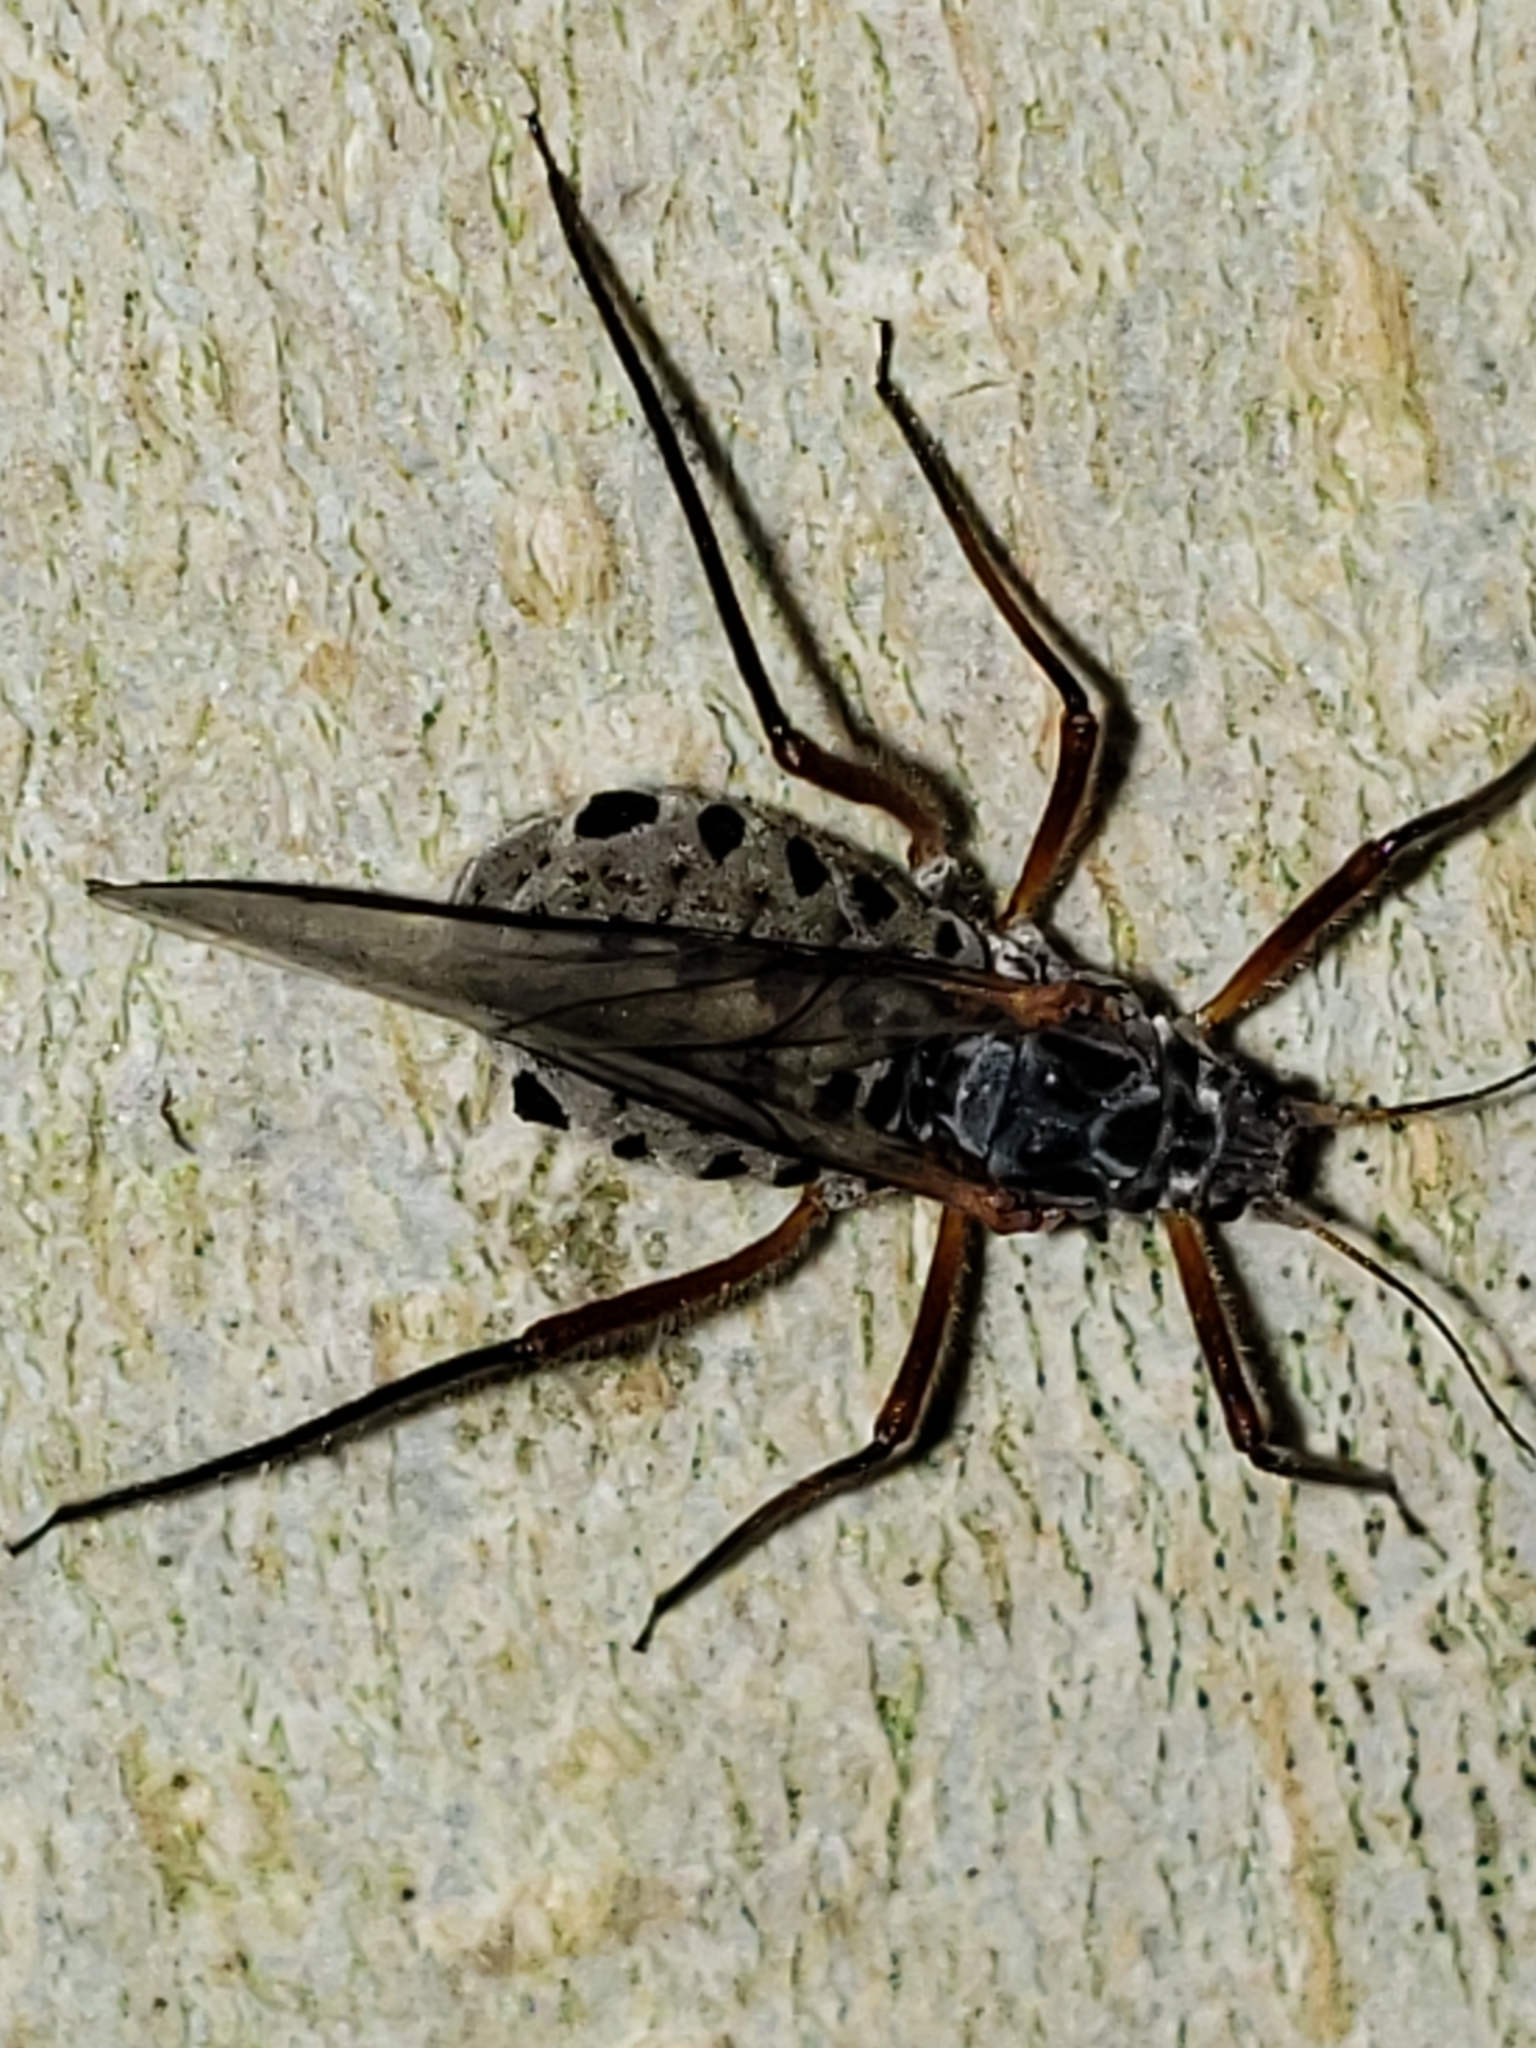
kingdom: Animalia
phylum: Arthropoda
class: Insecta
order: Hemiptera
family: Aphididae
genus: Longistigma
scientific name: Longistigma caryae
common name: Giant bark aphid
